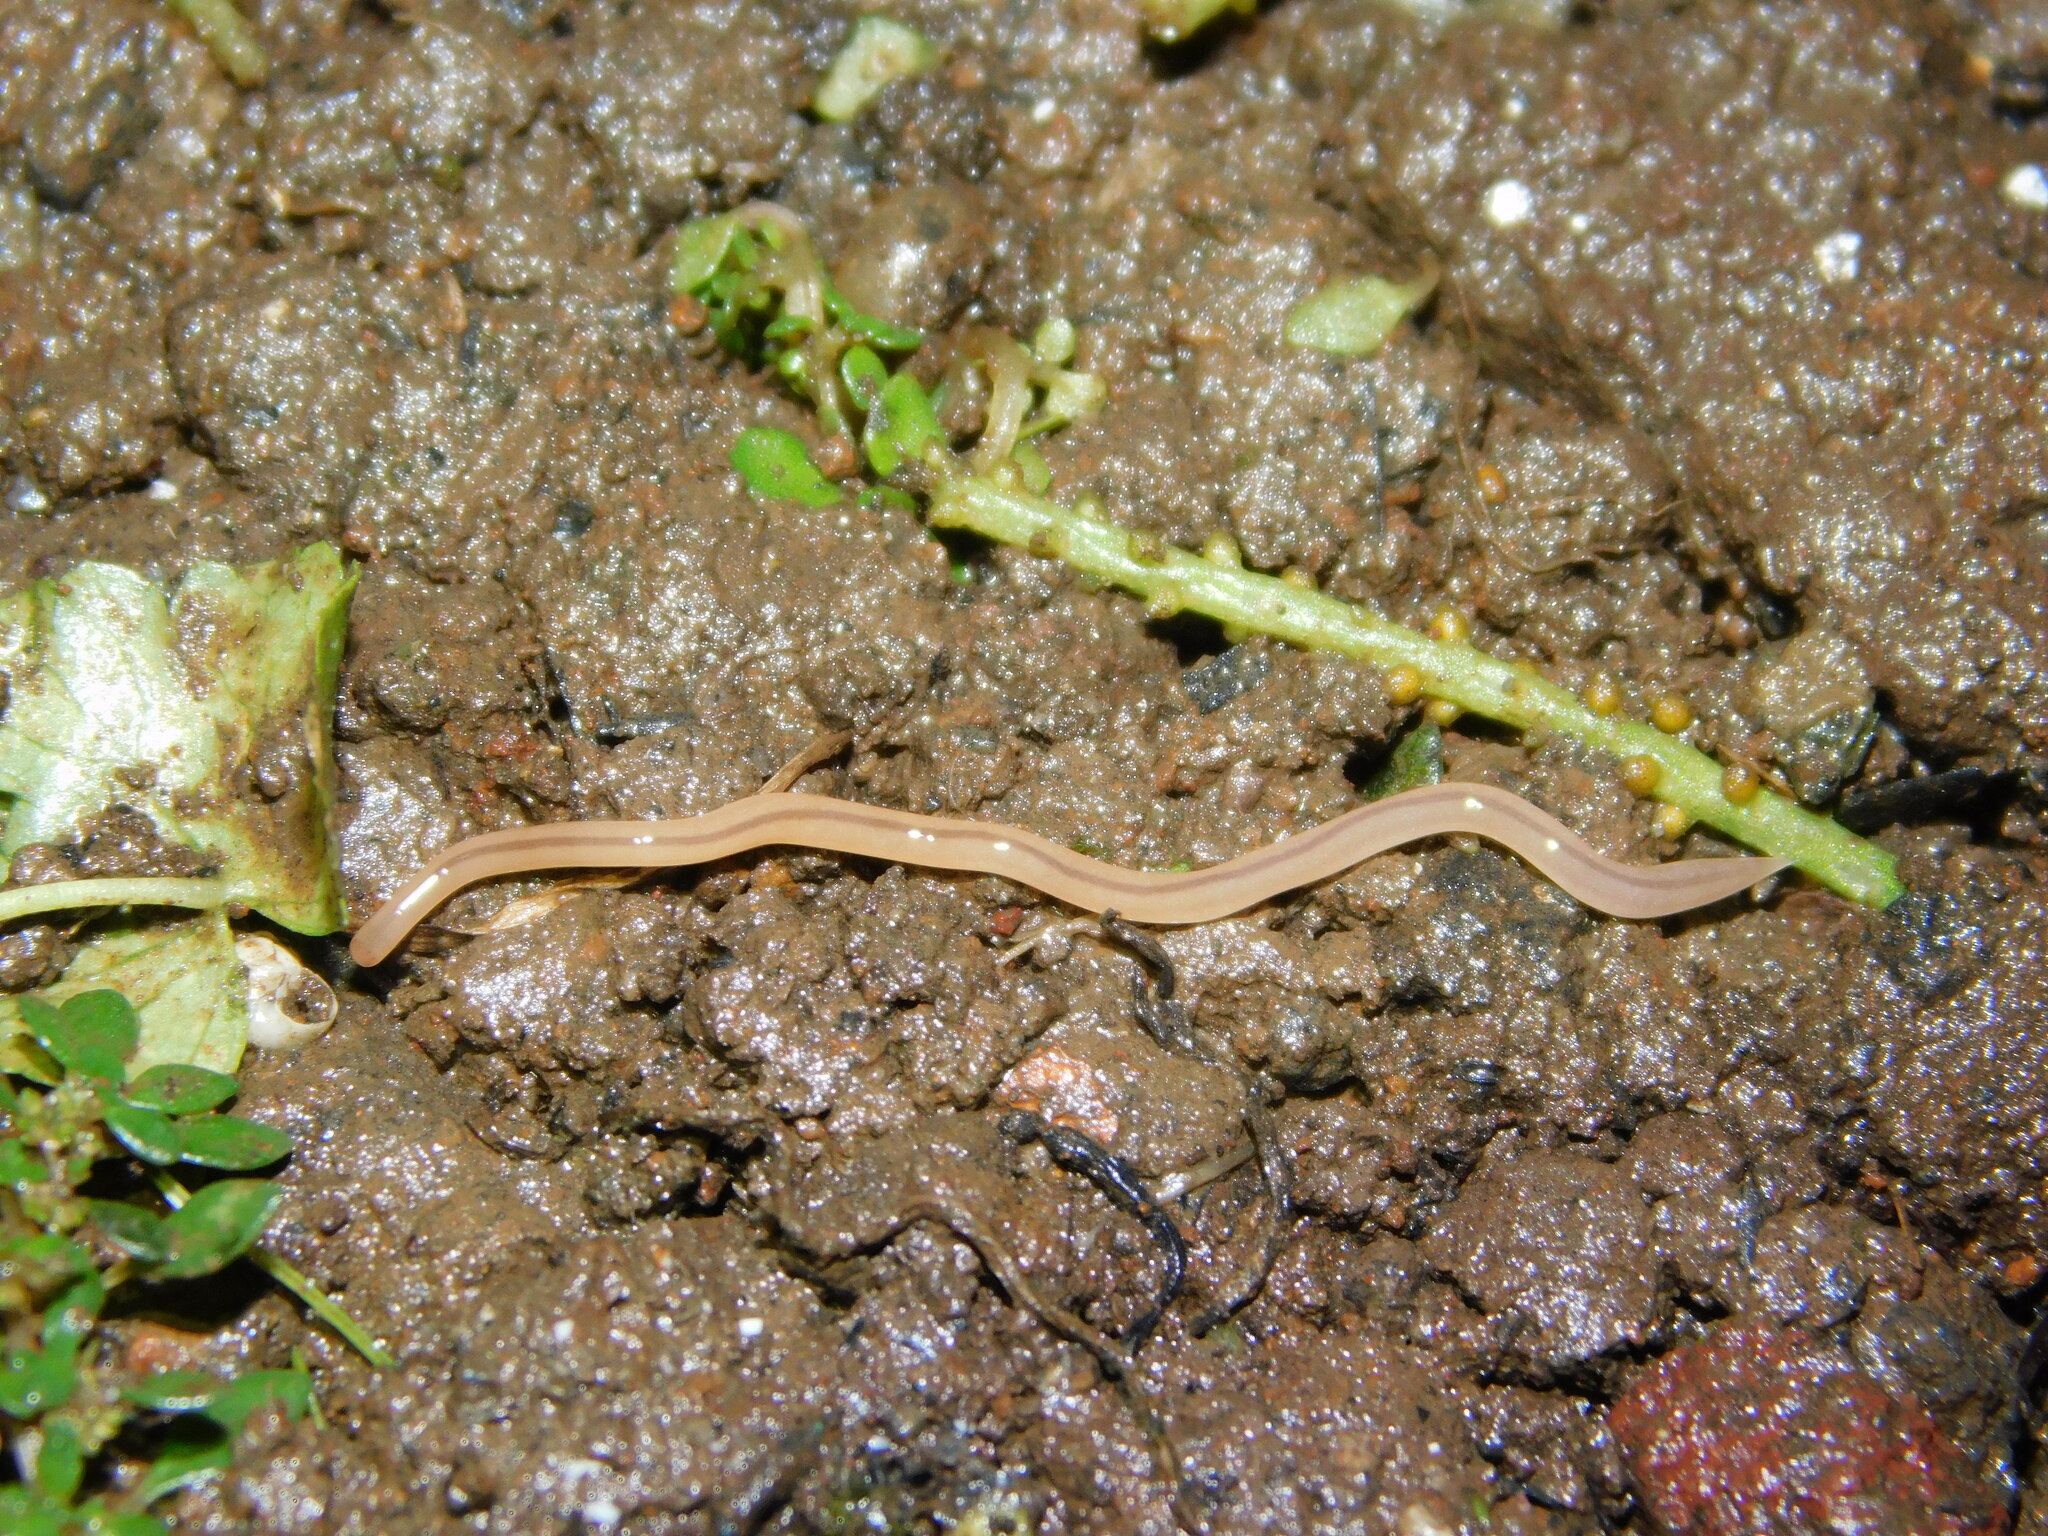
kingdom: Animalia
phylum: Nemertea
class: Hoplonemertea
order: Monostilifera
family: Prosorhochmidae
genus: Geonemertes
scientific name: Geonemertes pelaensis
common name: Land nemertean
